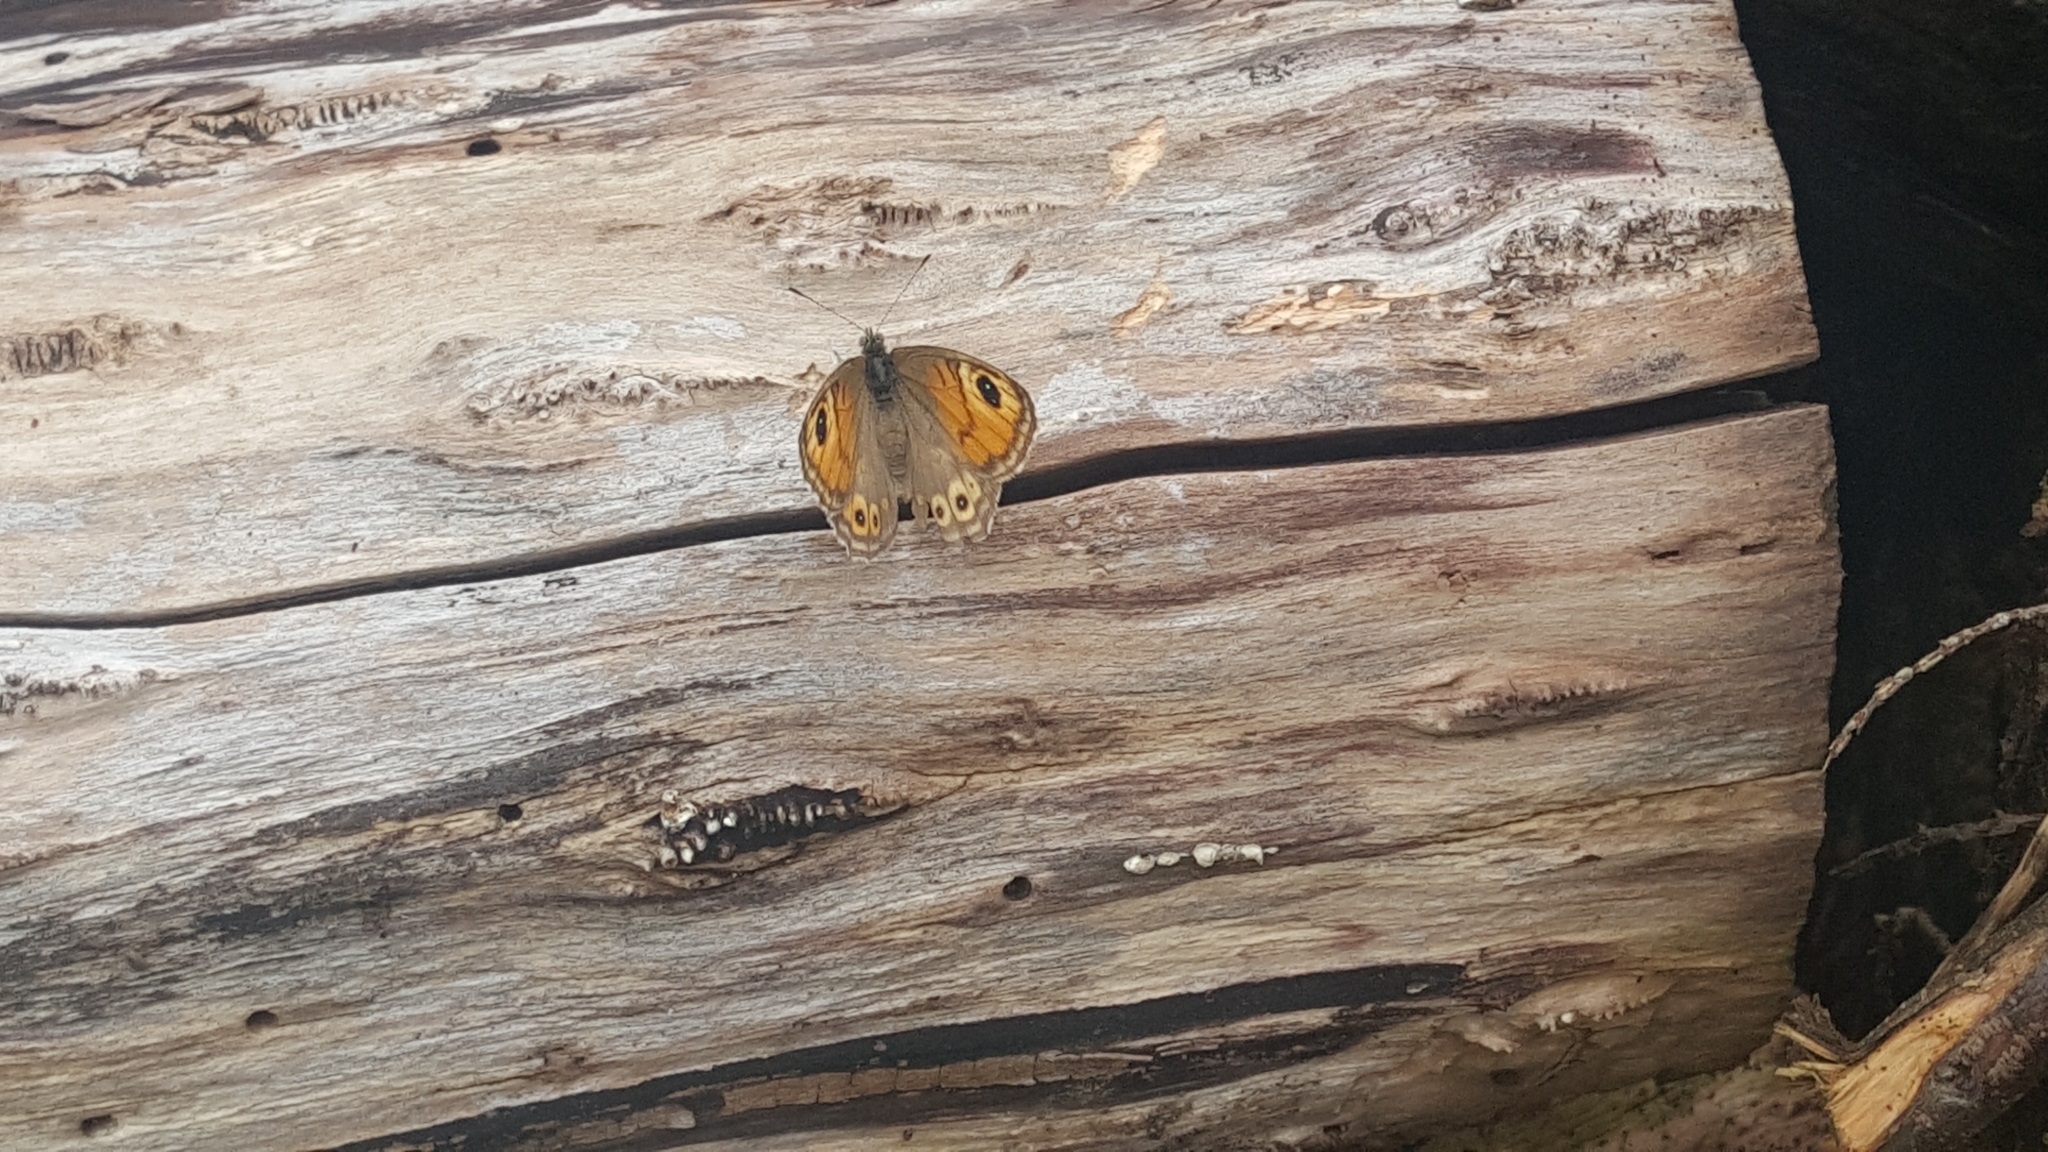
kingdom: Animalia
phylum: Arthropoda
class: Insecta
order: Lepidoptera
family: Nymphalidae
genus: Pararge
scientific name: Pararge Lasiommata maera
